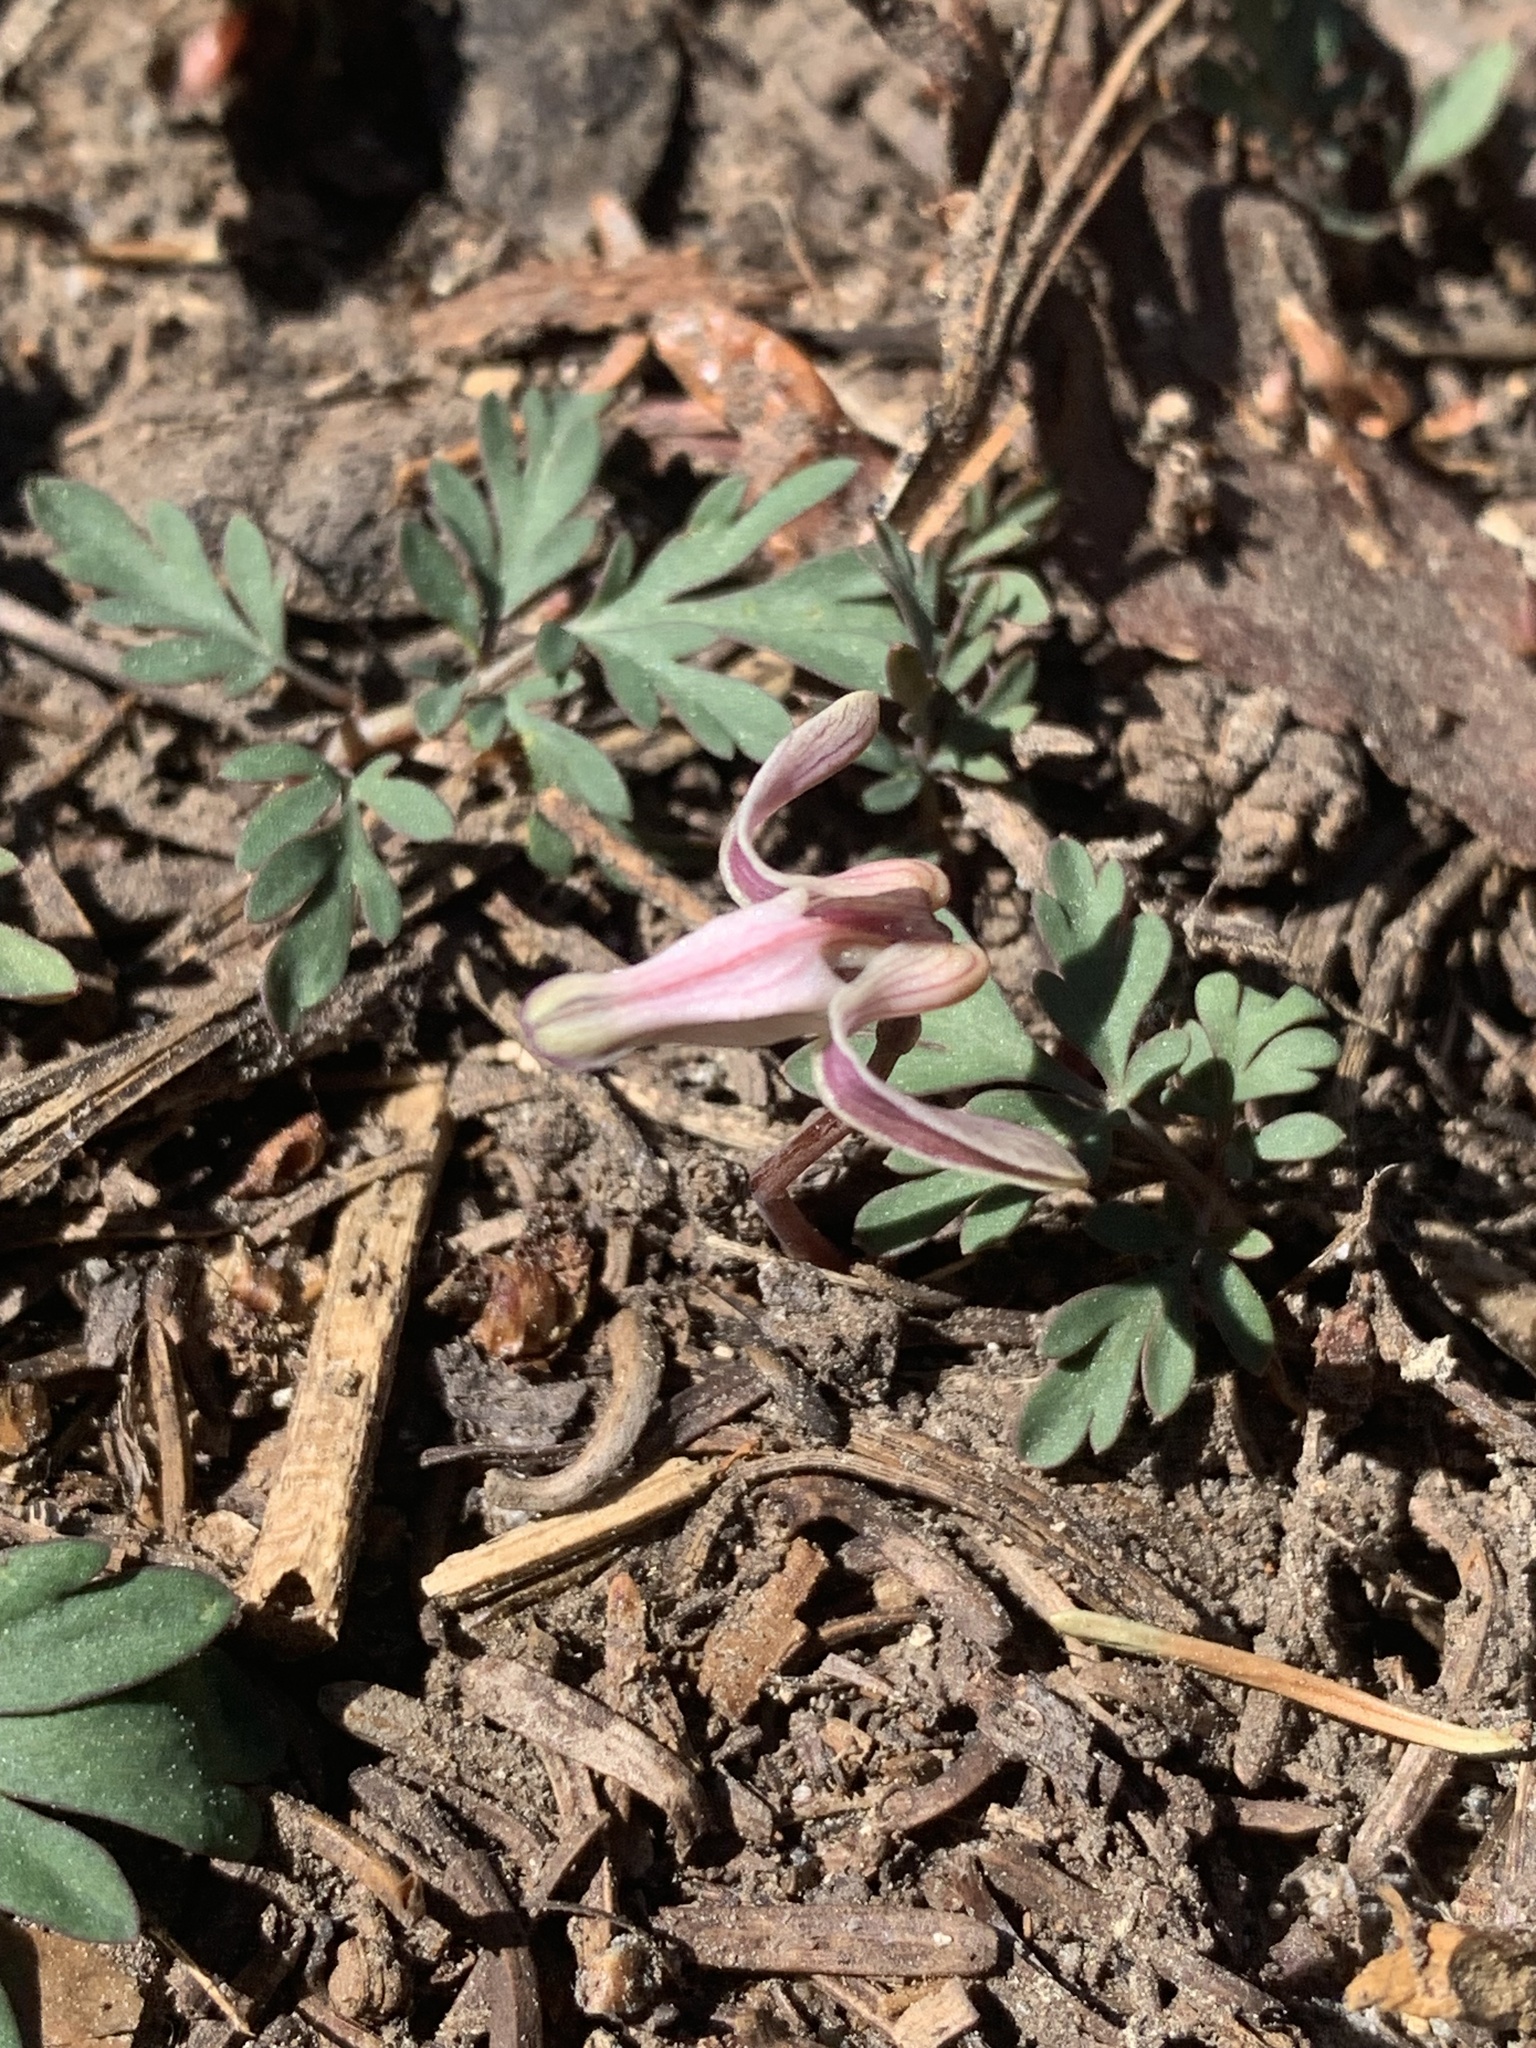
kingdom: Plantae
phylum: Tracheophyta
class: Magnoliopsida
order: Ranunculales
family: Papaveraceae
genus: Dicentra
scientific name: Dicentra uniflora
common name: Steer's-head
